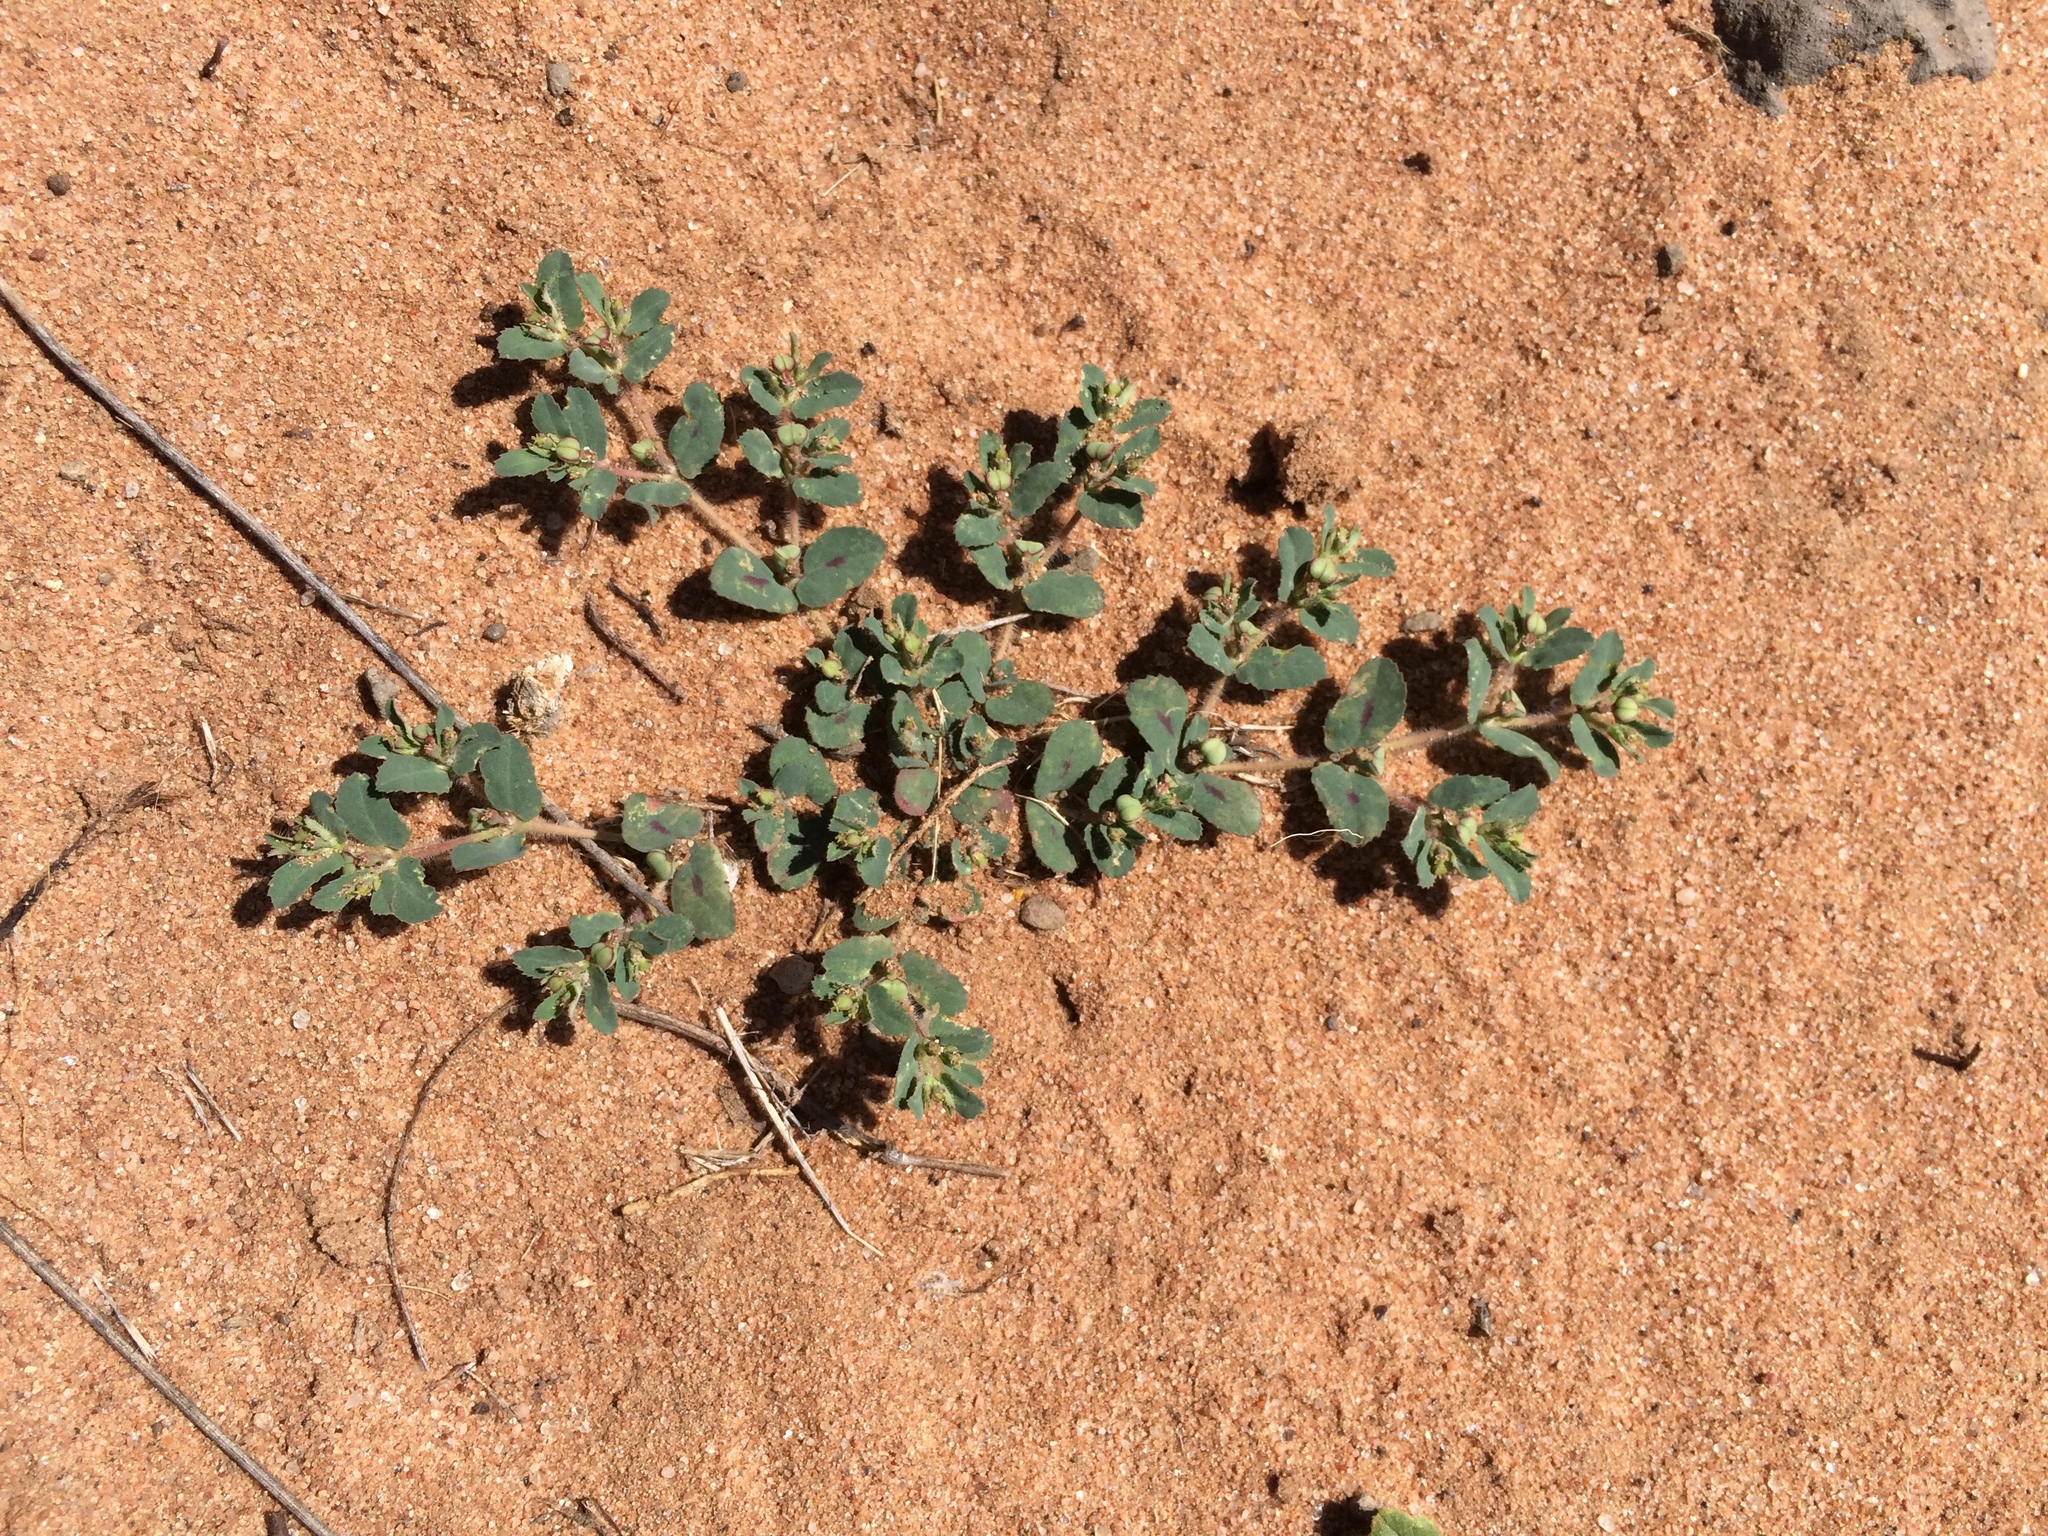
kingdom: Plantae
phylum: Tracheophyta
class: Magnoliopsida
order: Malpighiales
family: Euphorbiaceae
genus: Euphorbia
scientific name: Euphorbia serrula
